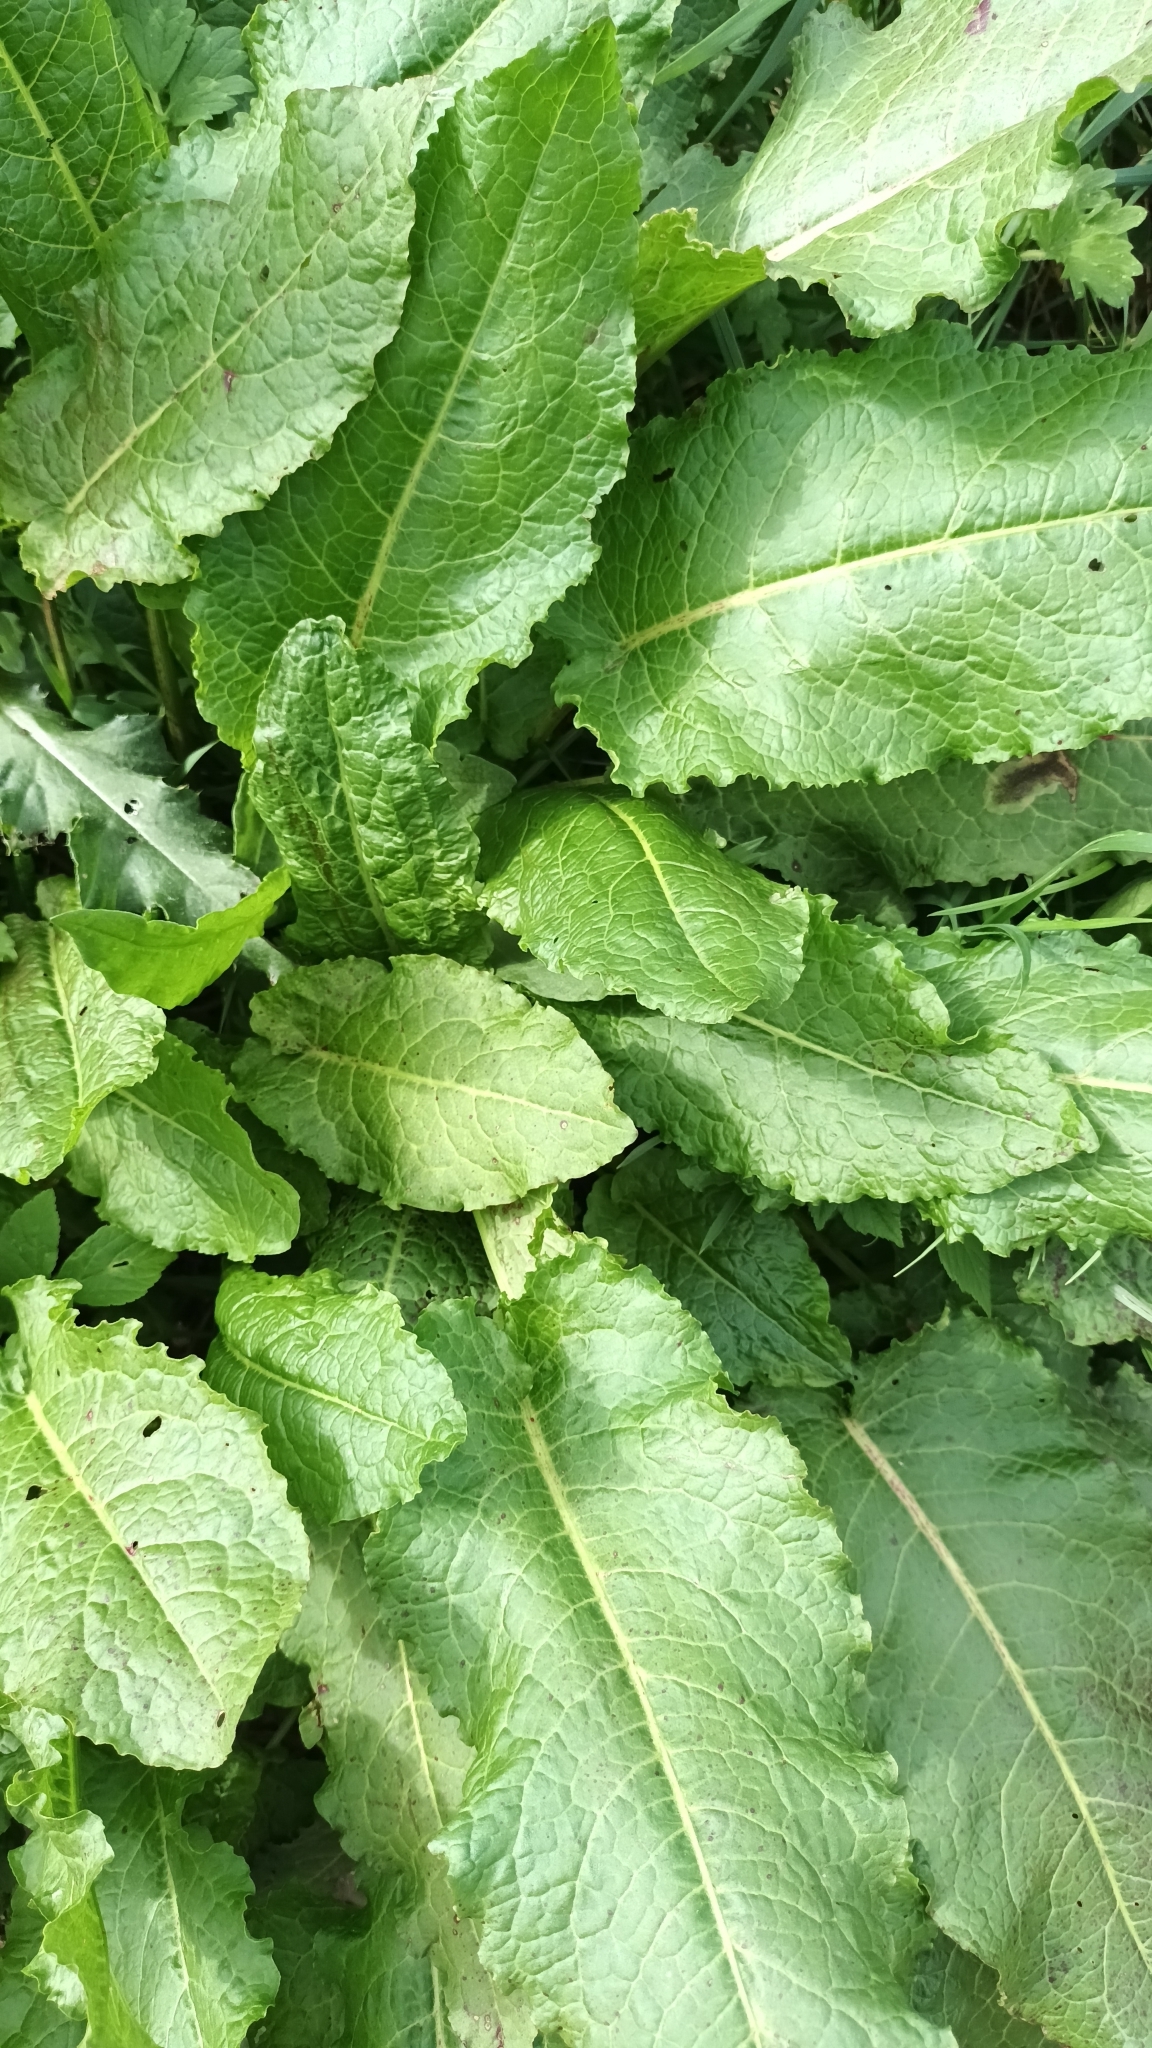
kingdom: Plantae
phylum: Tracheophyta
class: Magnoliopsida
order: Caryophyllales
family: Polygonaceae
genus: Rumex
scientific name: Rumex obtusifolius
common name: Bitter dock
